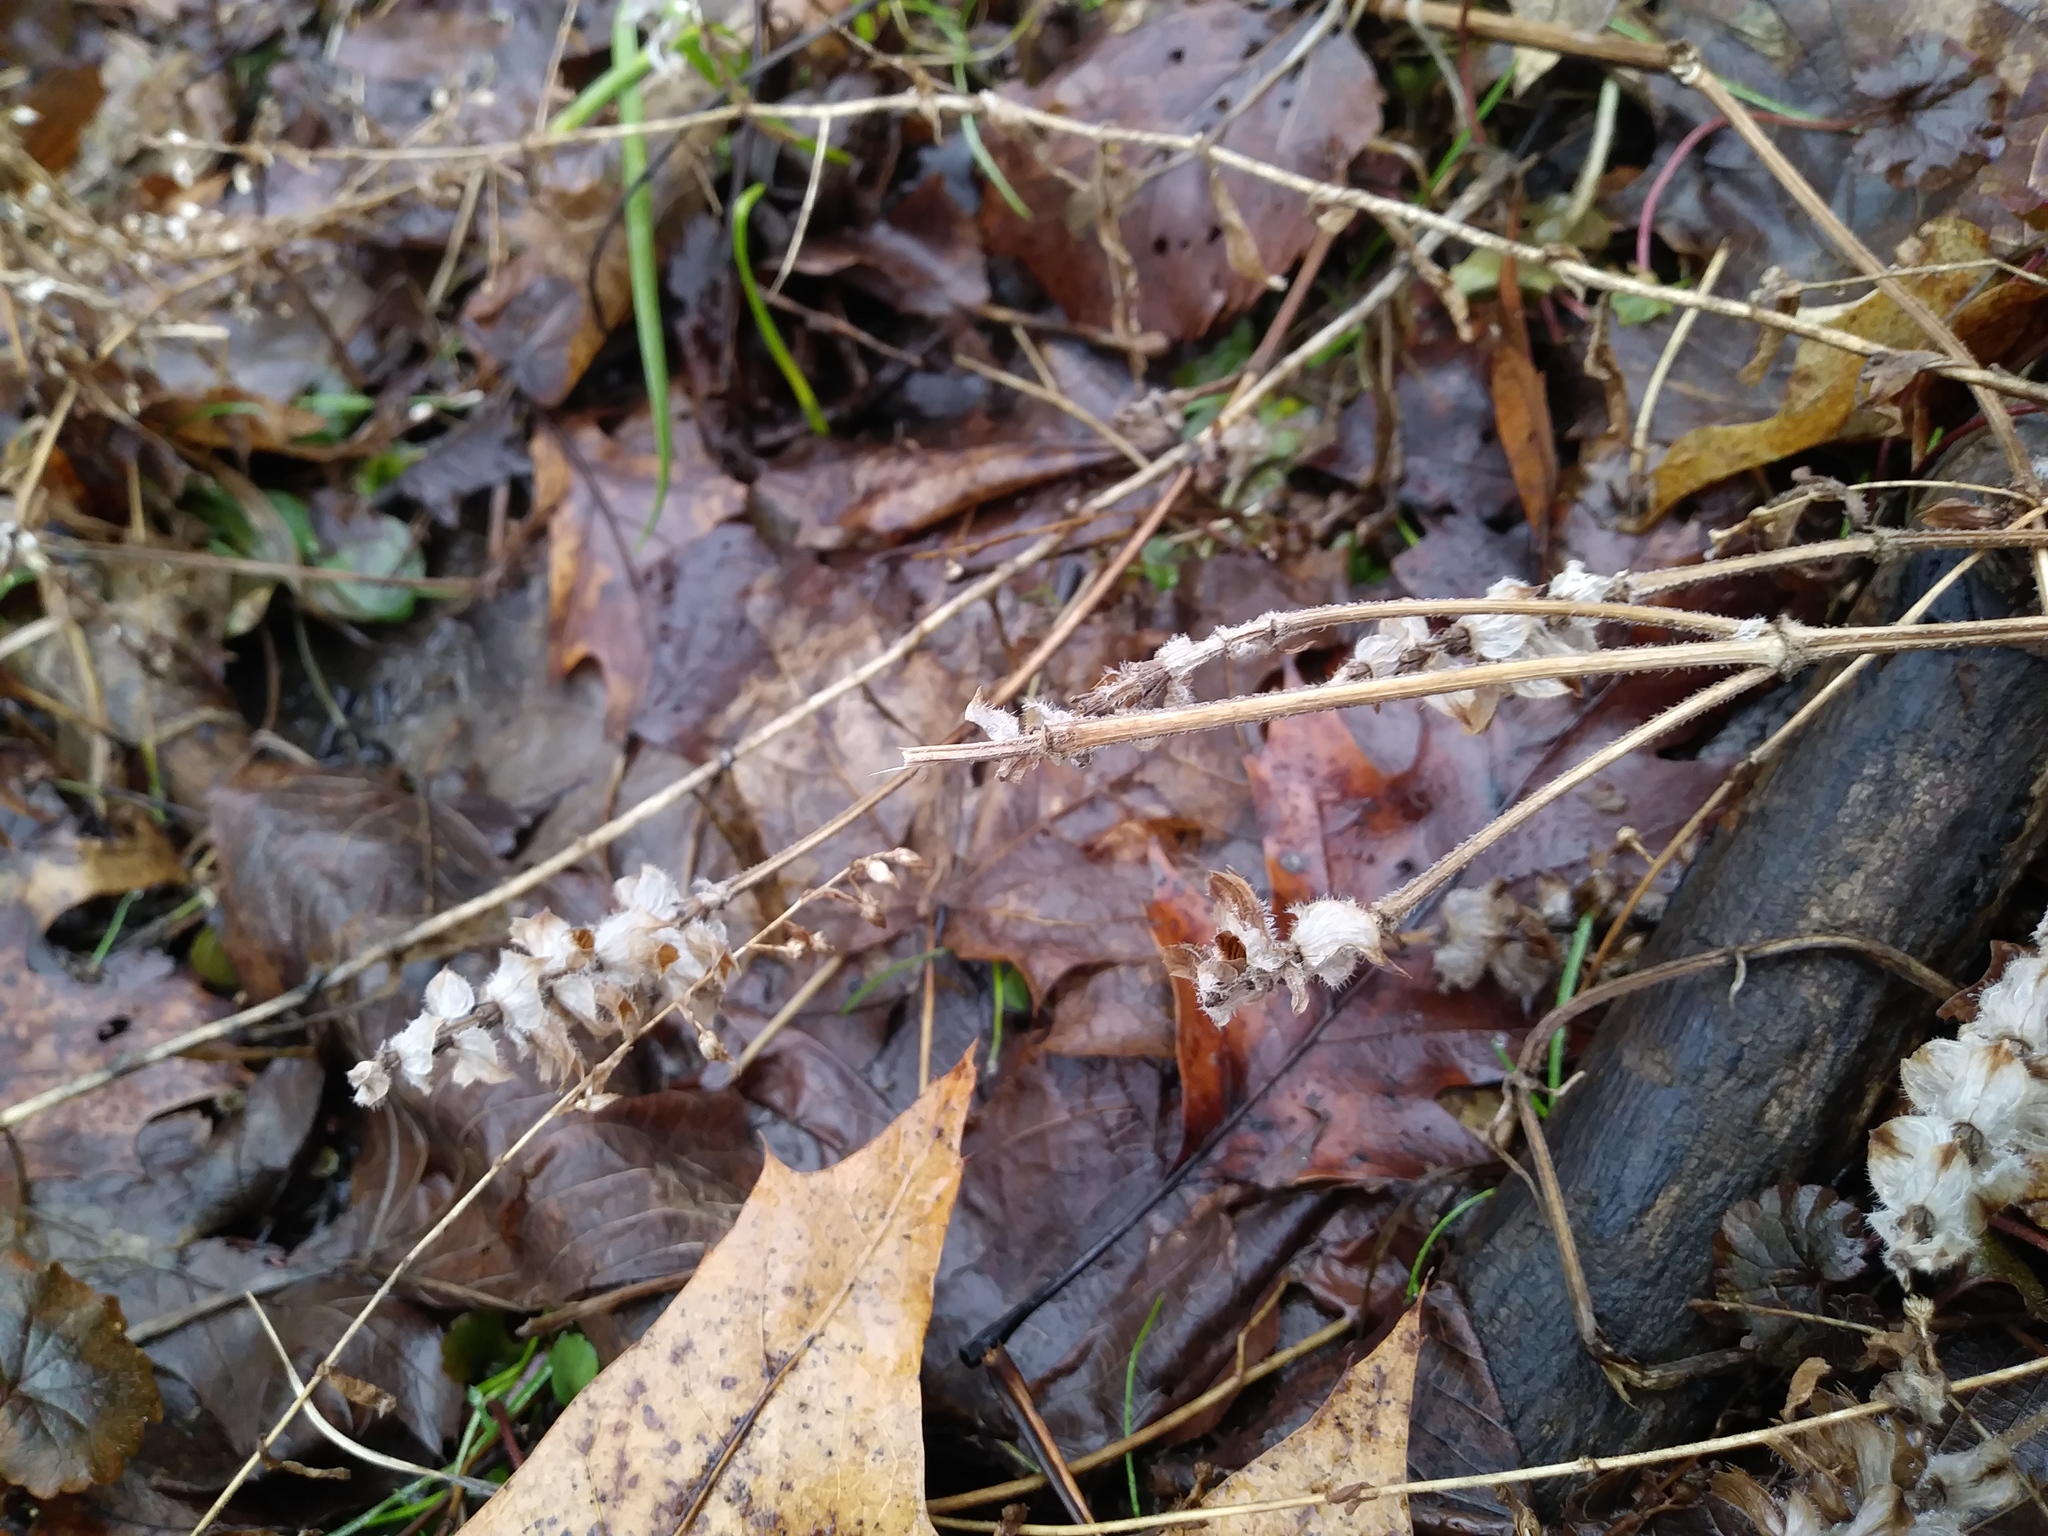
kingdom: Plantae
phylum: Tracheophyta
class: Magnoliopsida
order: Lamiales
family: Lamiaceae
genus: Prunella
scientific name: Prunella vulgaris
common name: Heal-all
